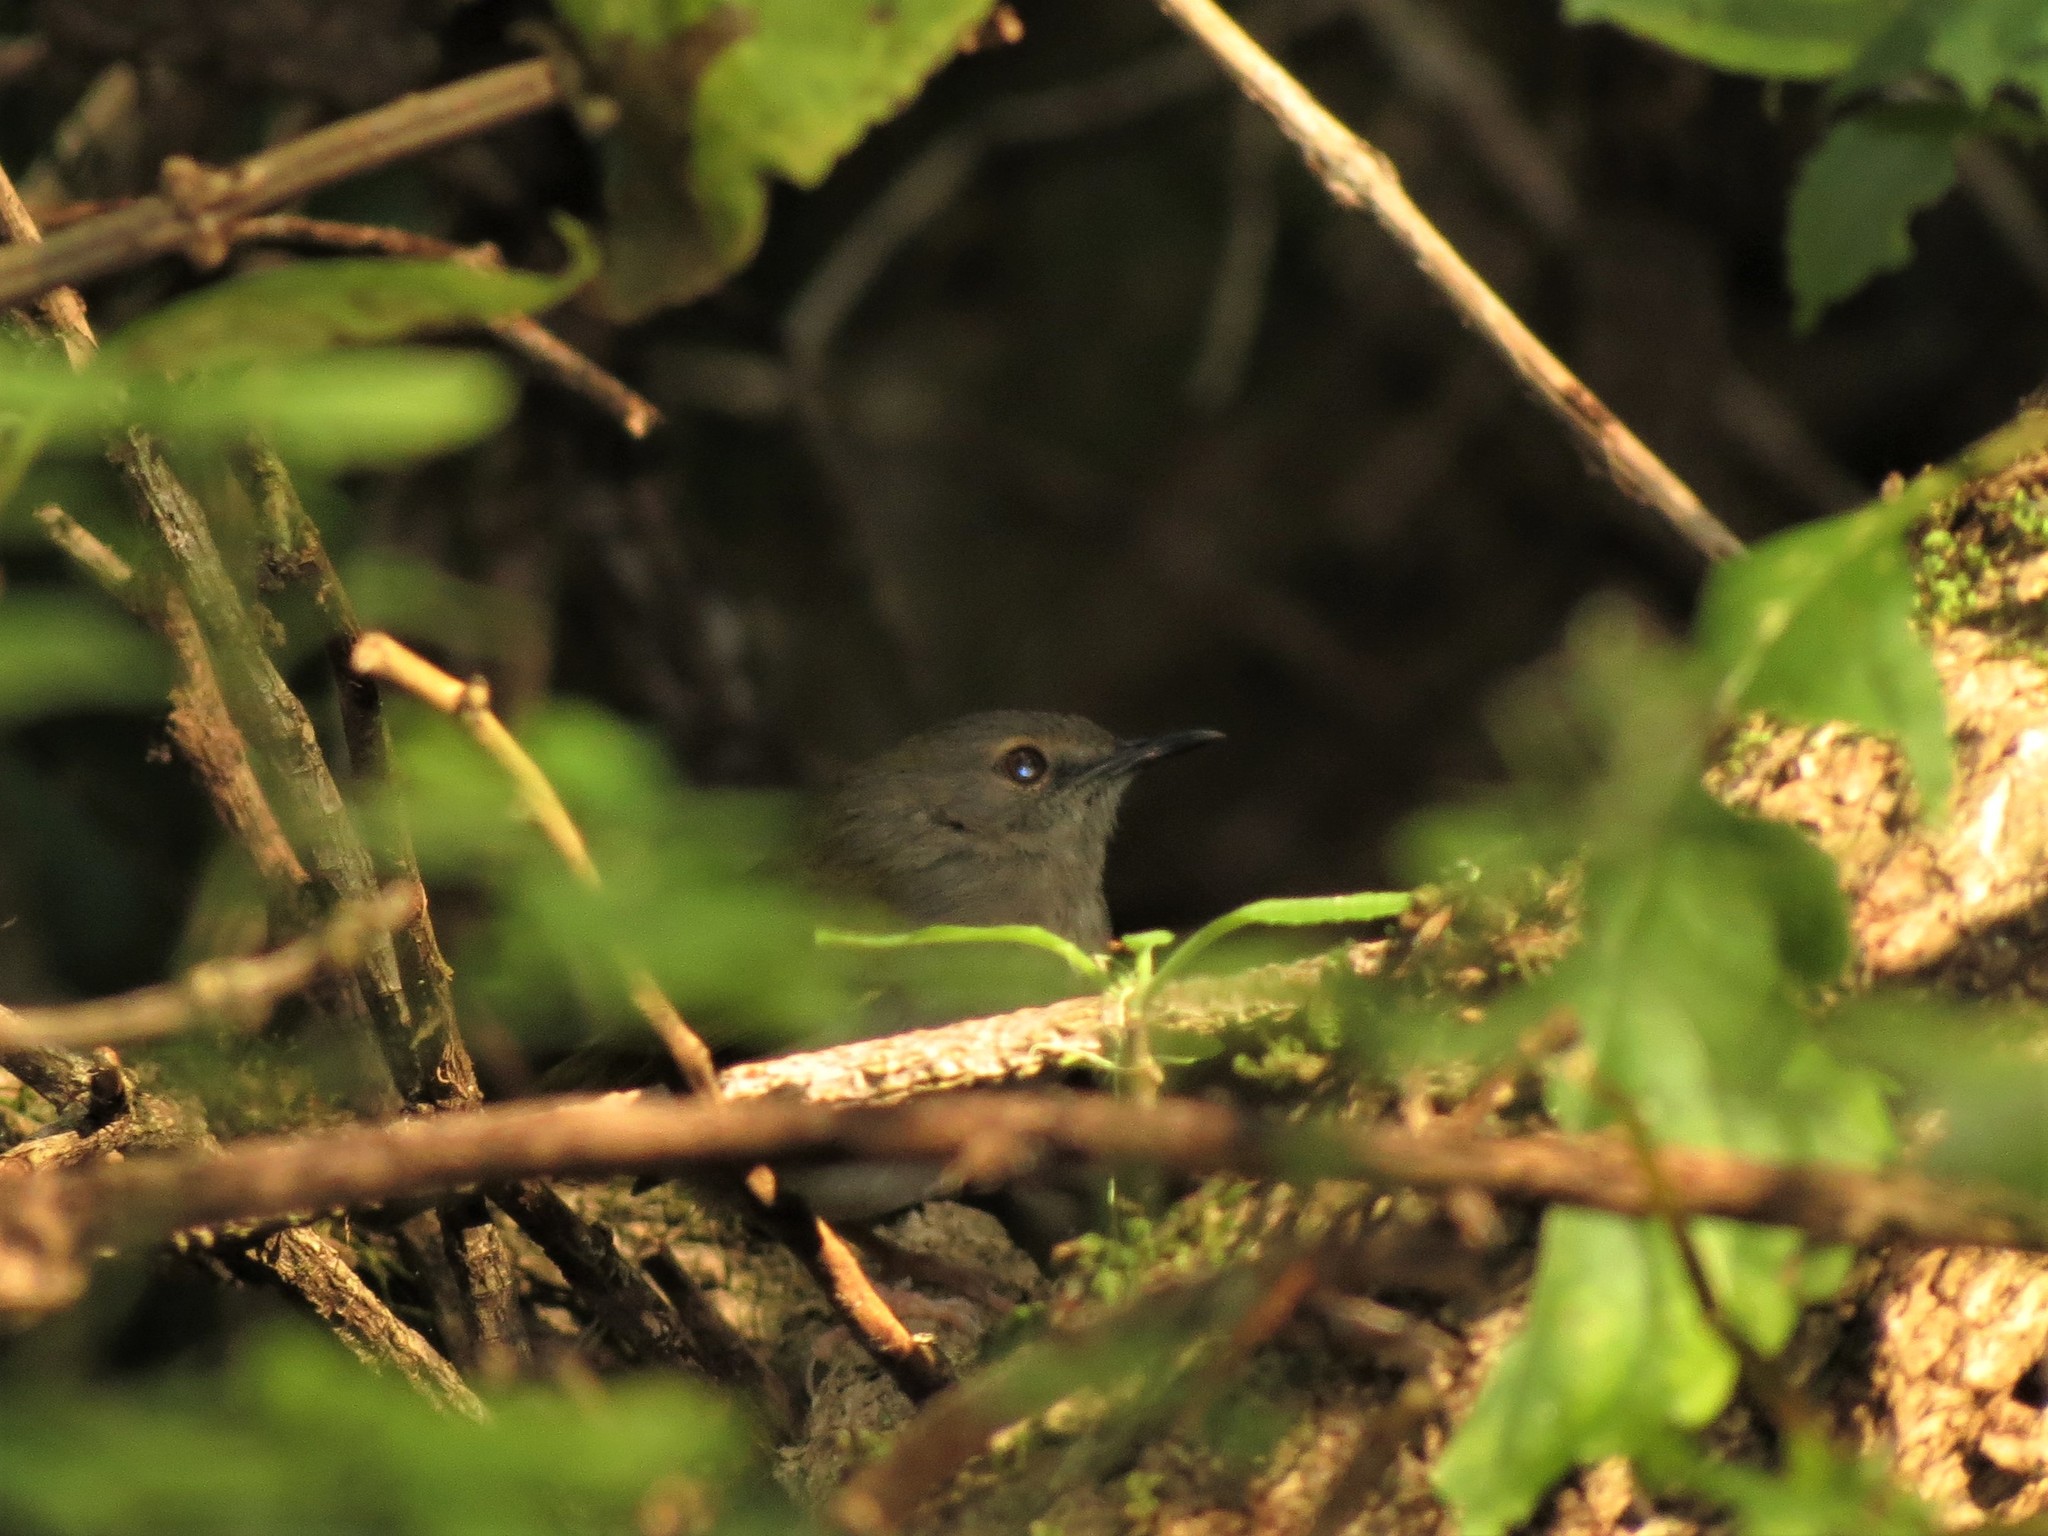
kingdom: Animalia
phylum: Chordata
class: Aves
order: Passeriformes
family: Cisticolidae
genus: Camaroptera
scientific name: Camaroptera brachyura
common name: Green-backed camaroptera
